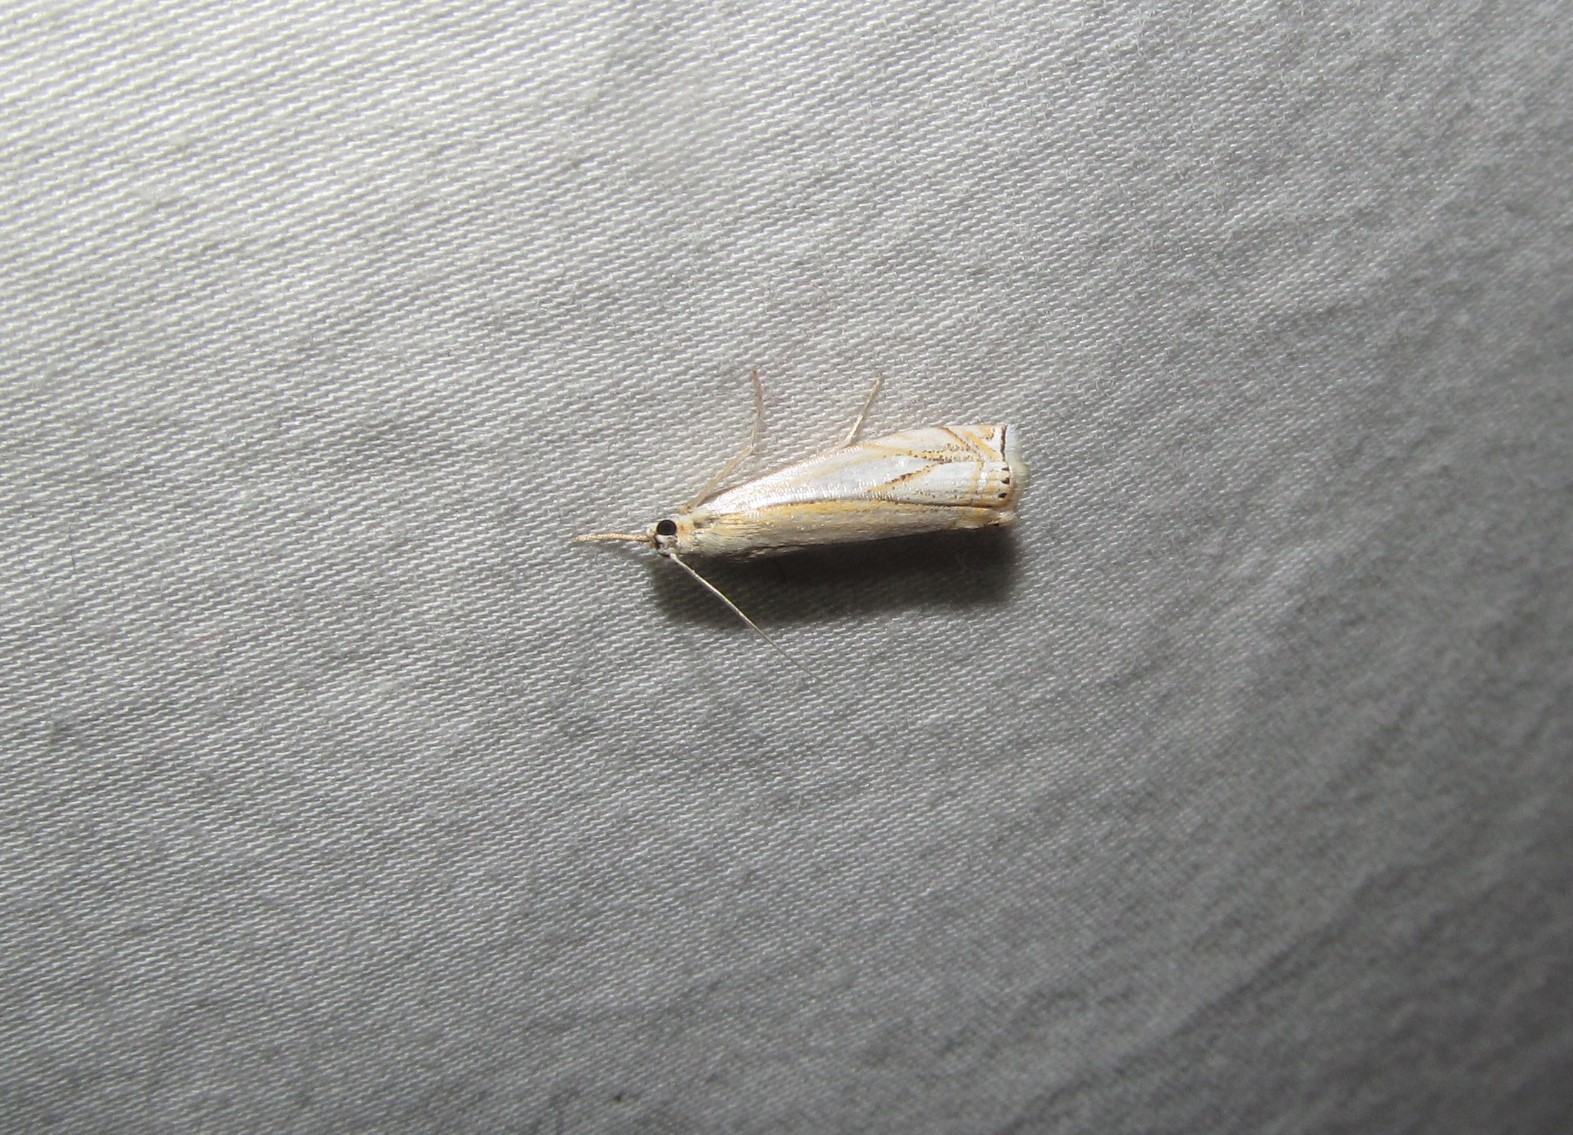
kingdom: Animalia
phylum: Arthropoda
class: Insecta
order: Lepidoptera
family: Crambidae
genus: Crambus
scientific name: Crambus agitatellus
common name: Double-banded grass-veneer
